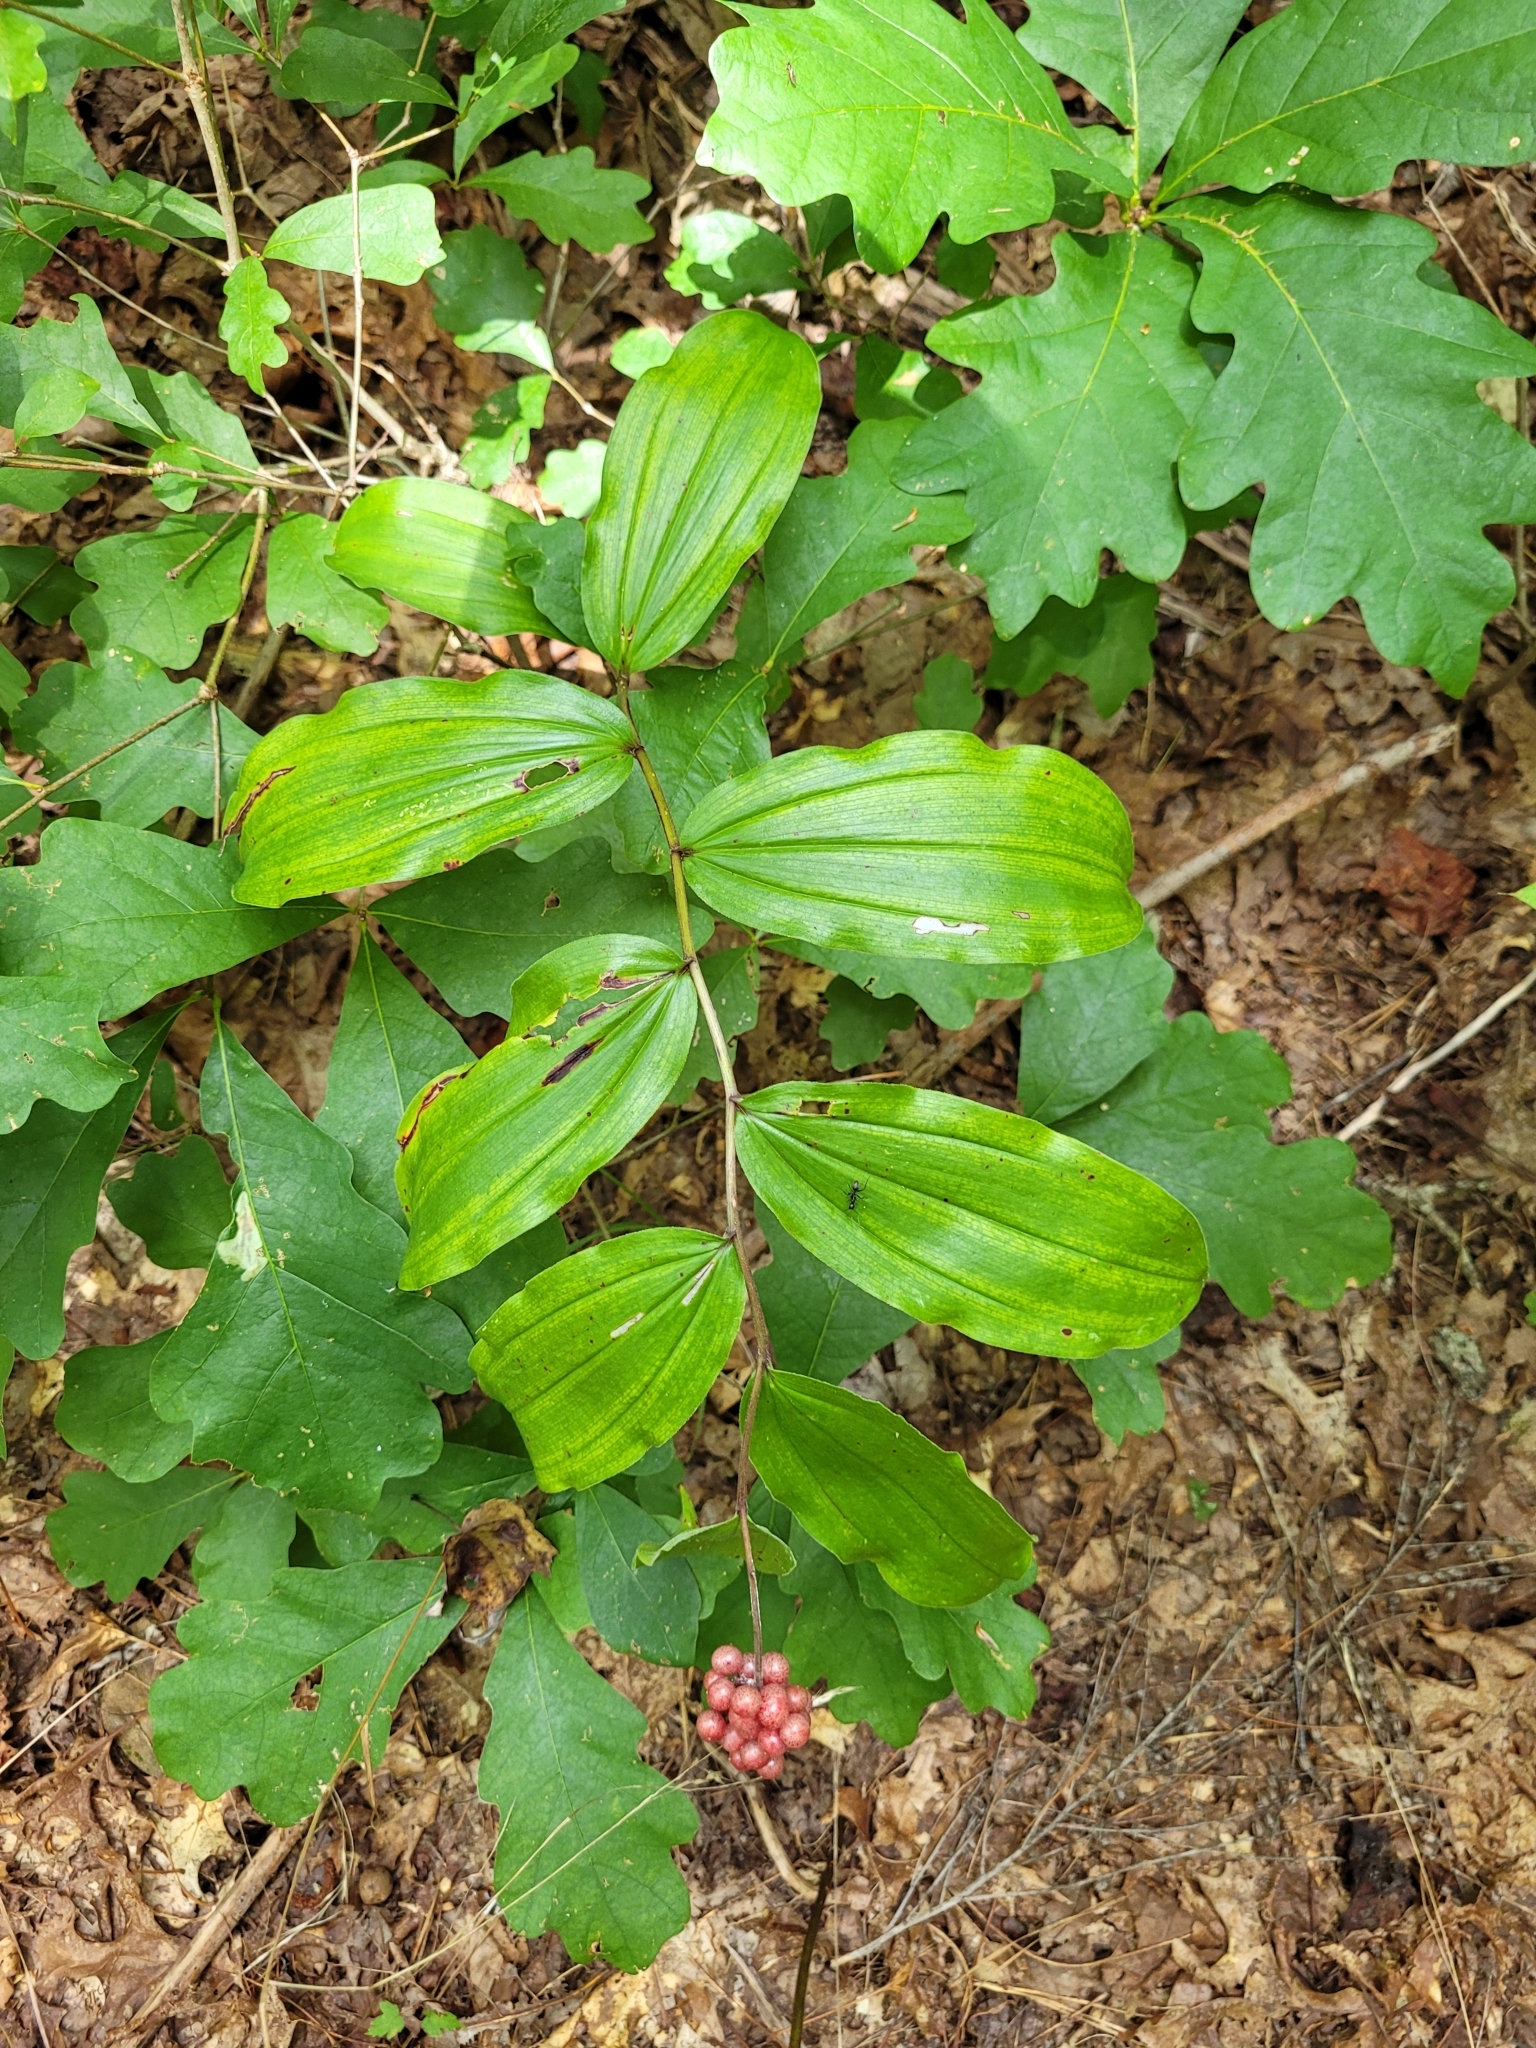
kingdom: Plantae
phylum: Tracheophyta
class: Liliopsida
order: Asparagales
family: Asparagaceae
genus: Maianthemum
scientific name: Maianthemum racemosum
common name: False spikenard
